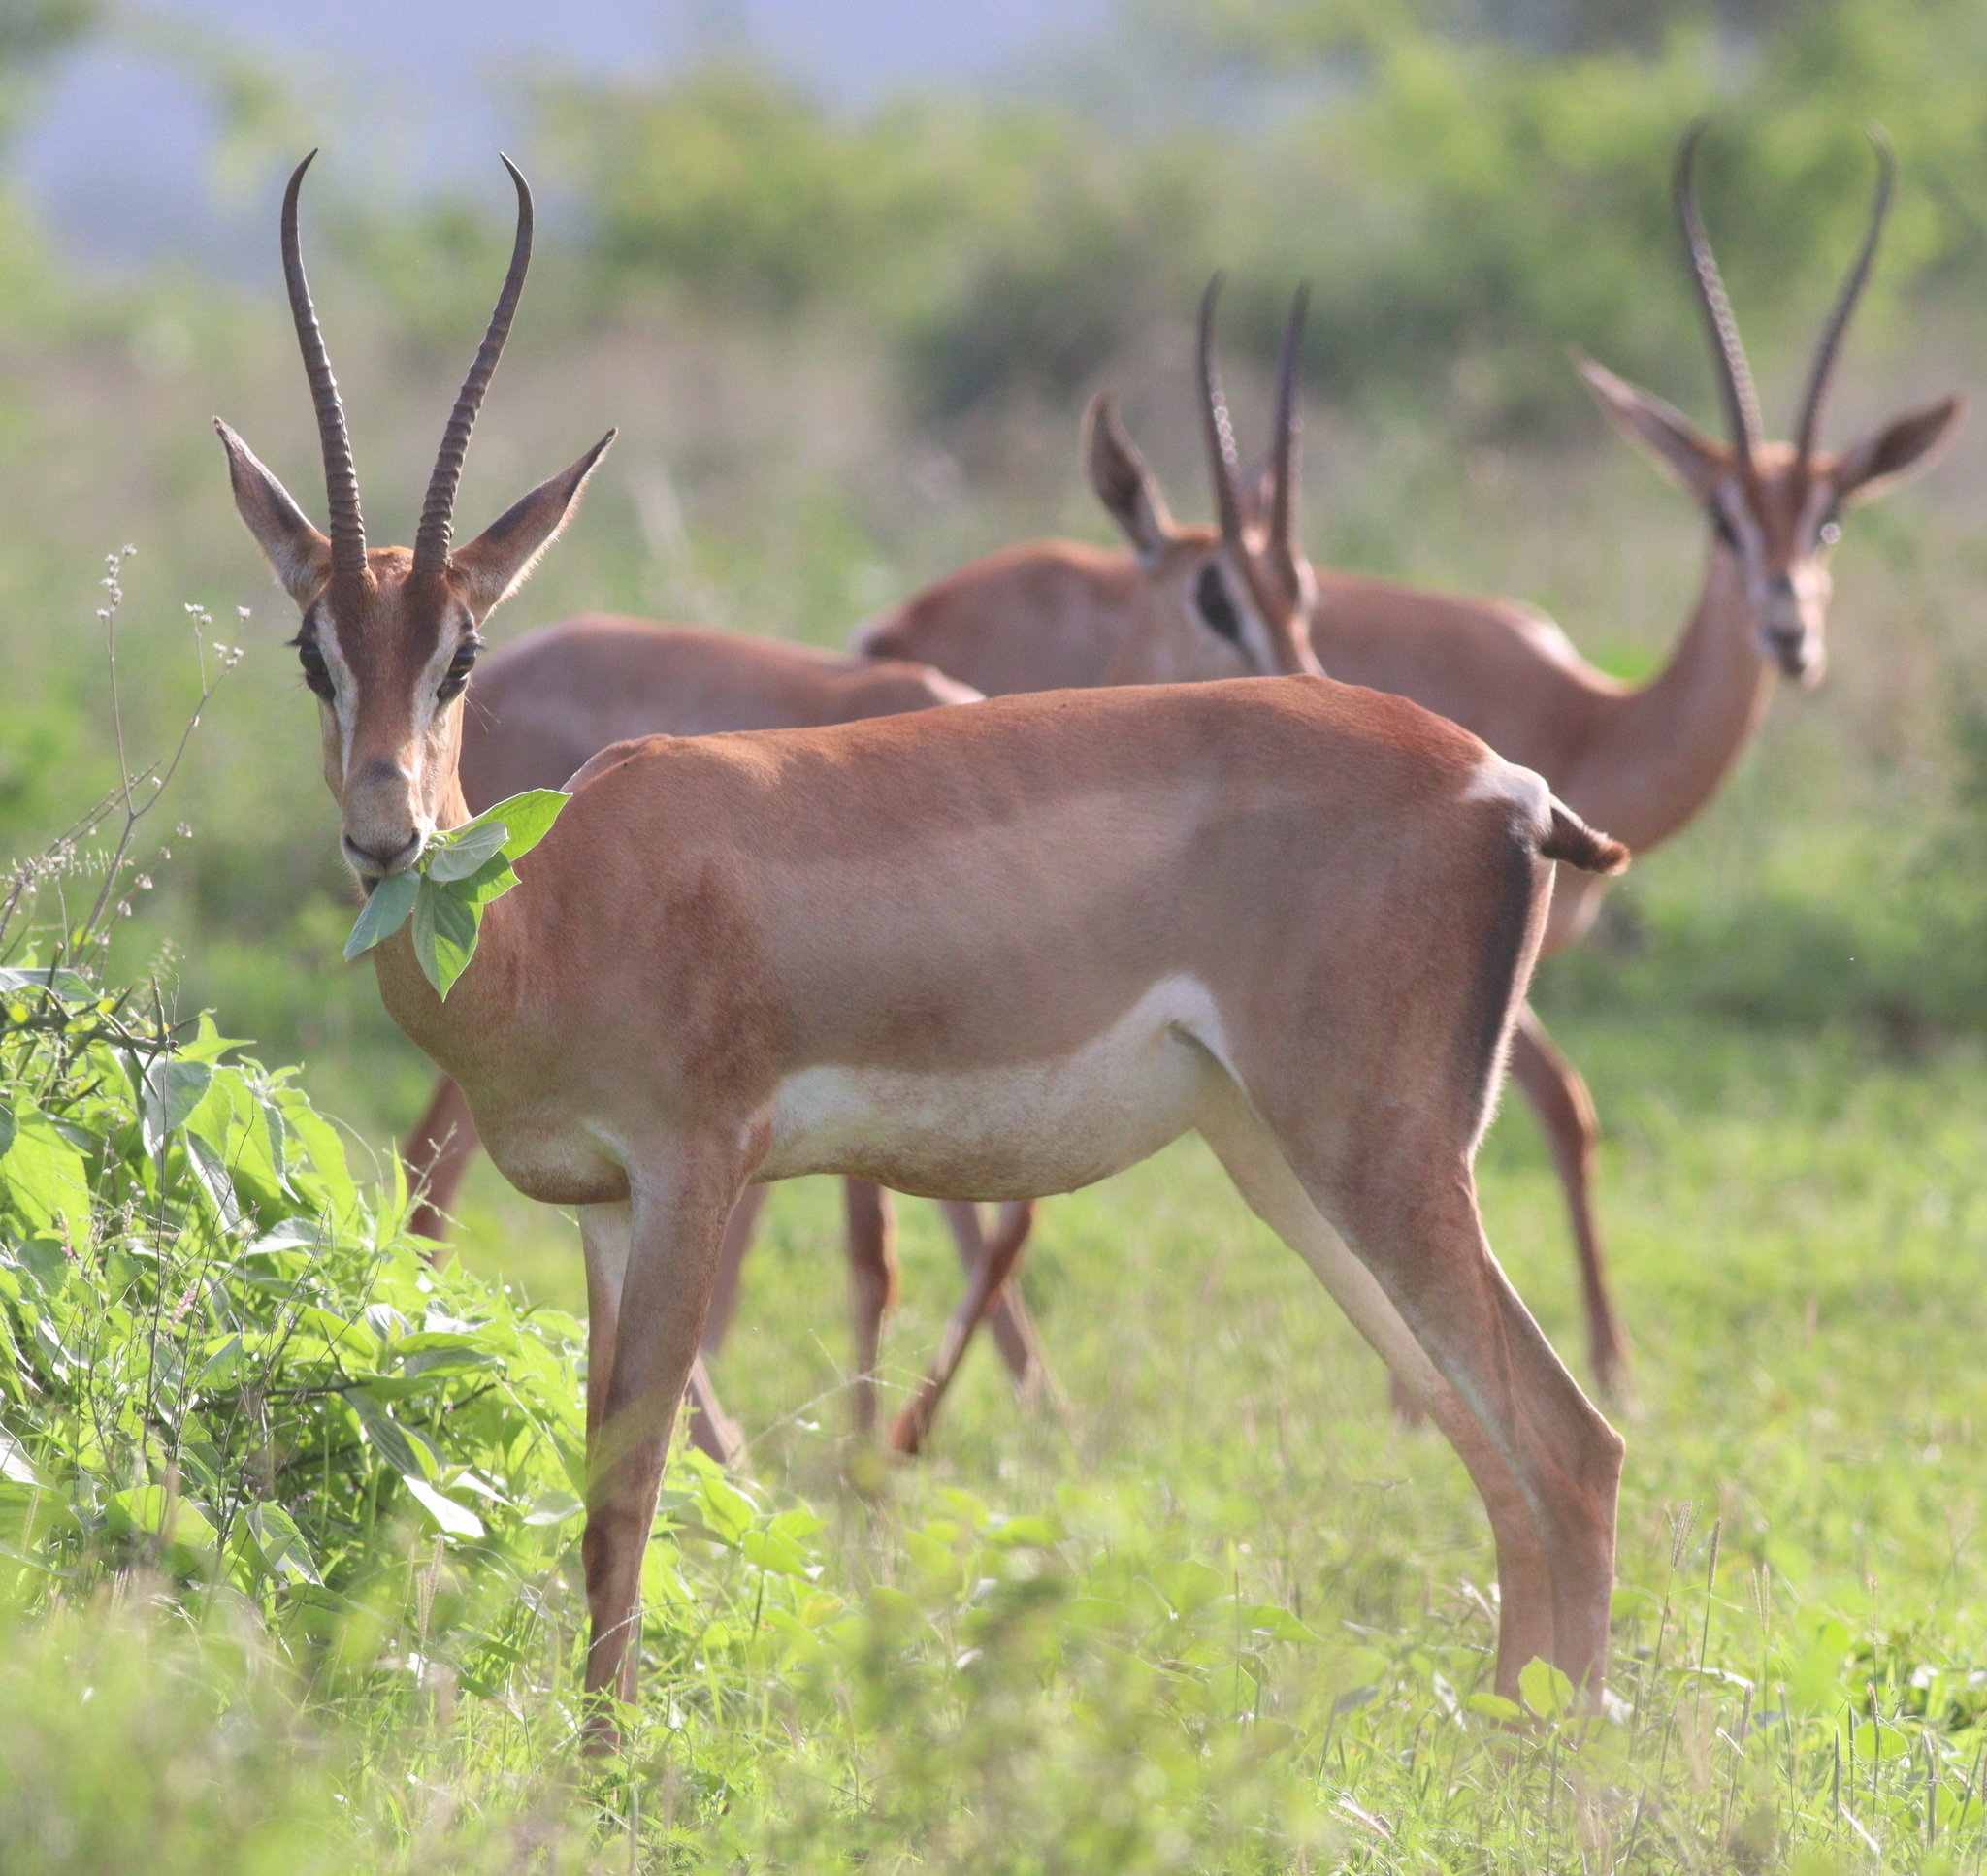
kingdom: Animalia
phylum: Chordata
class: Mammalia
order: Artiodactyla
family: Bovidae
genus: Nanger
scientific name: Nanger granti
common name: Grant's gazelle
